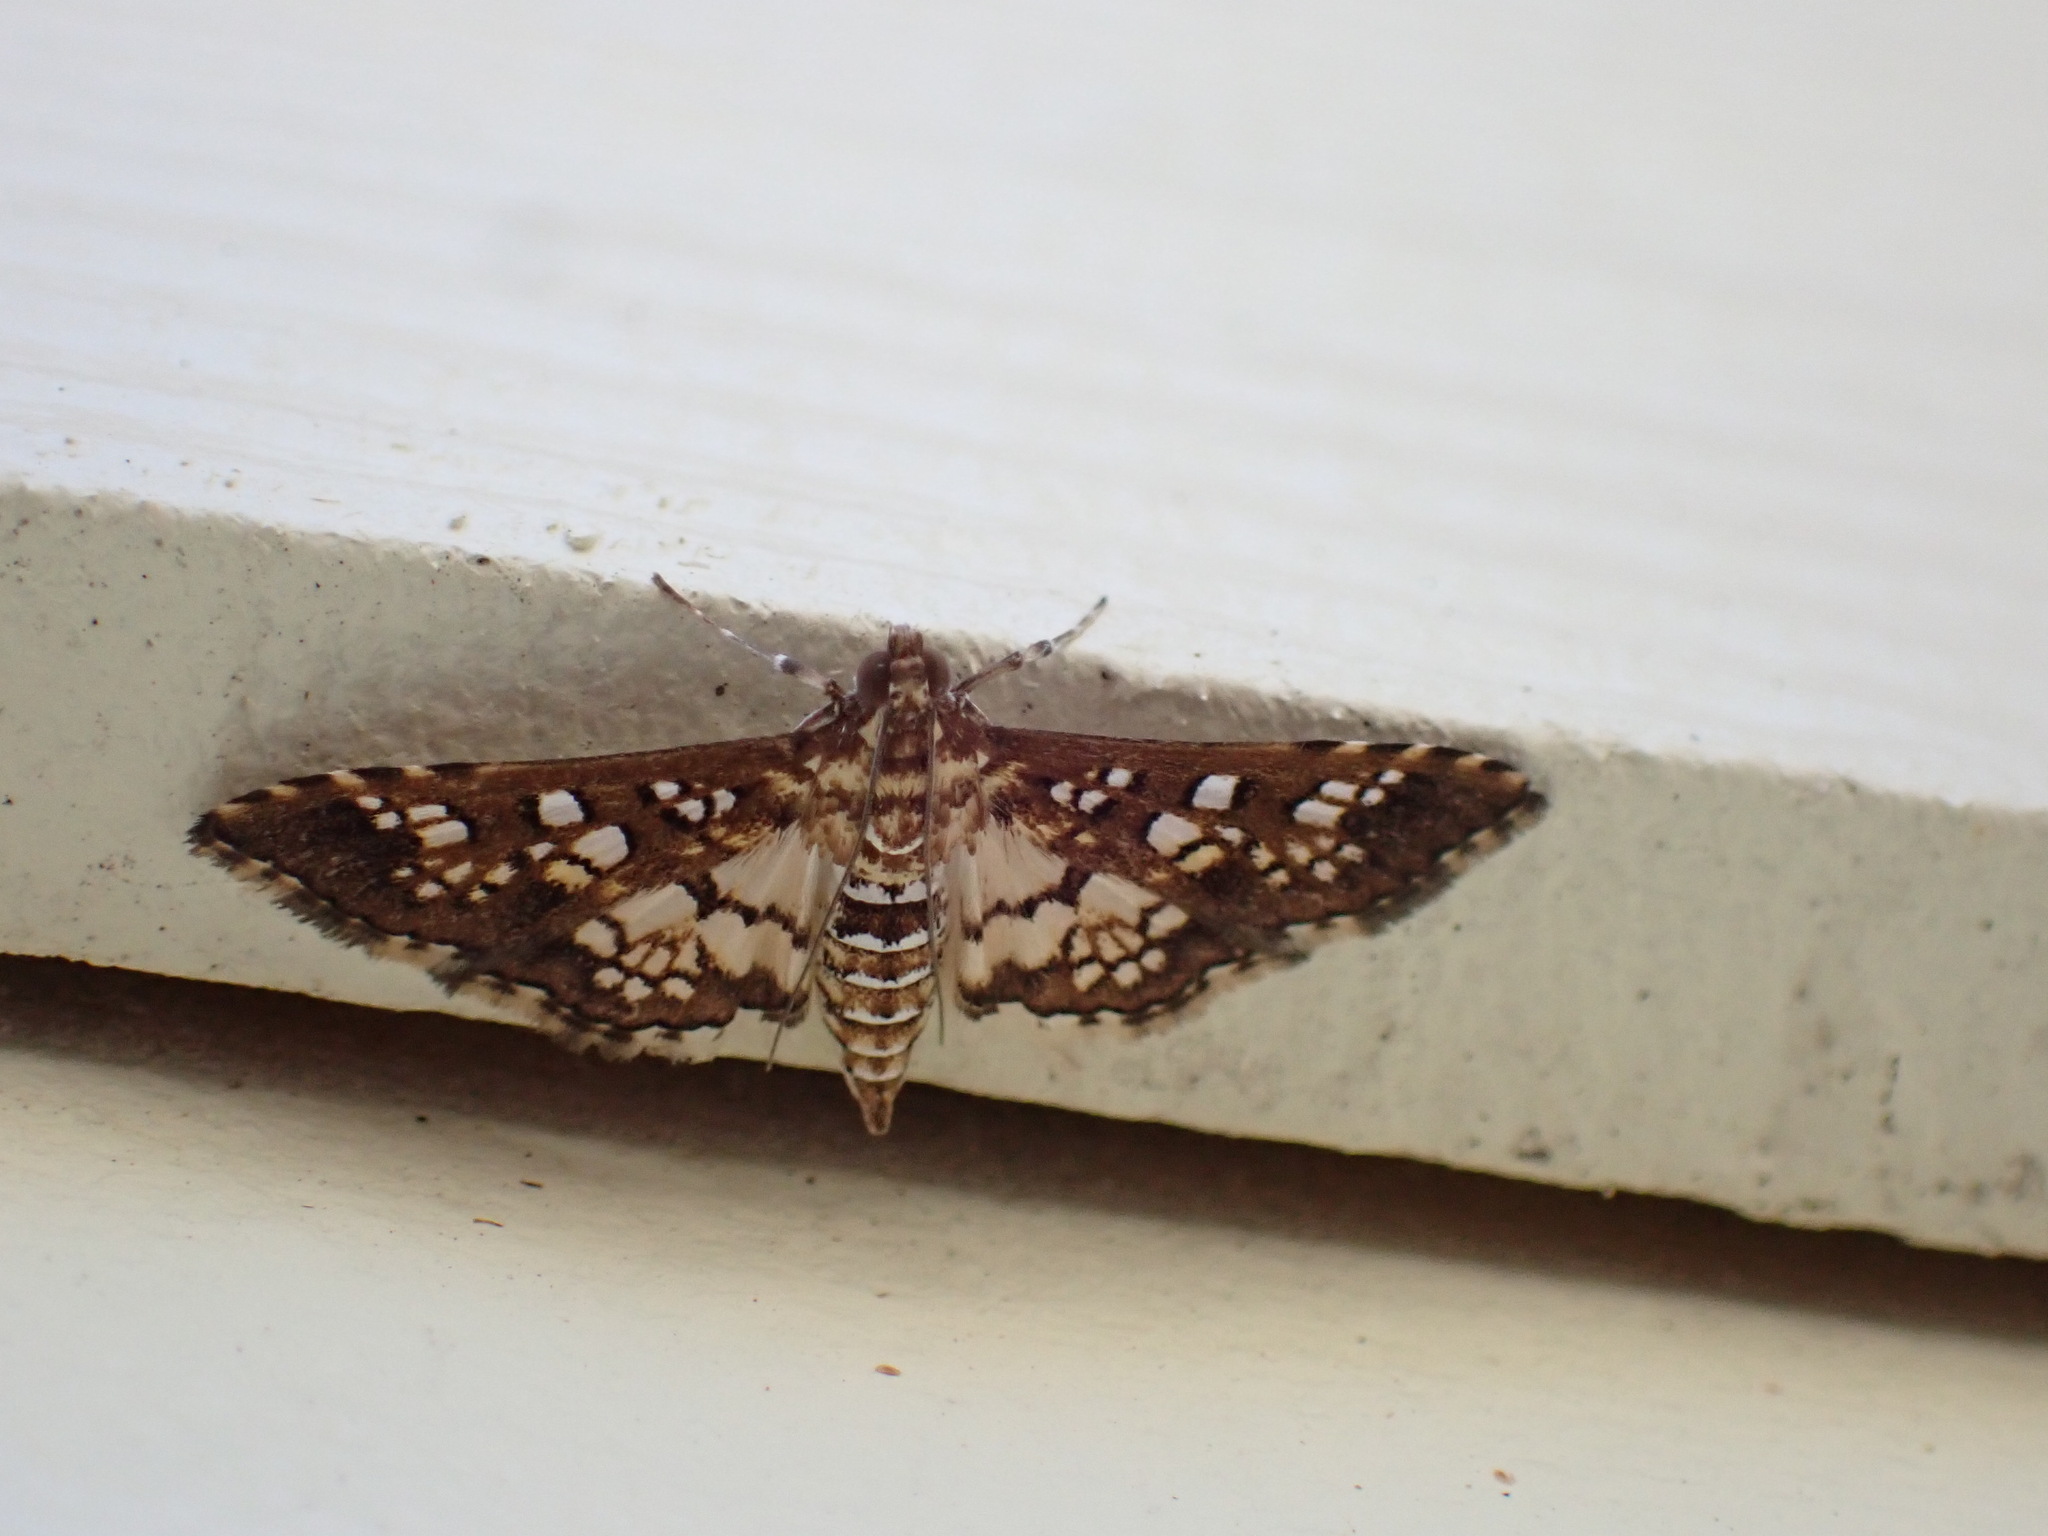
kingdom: Animalia
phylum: Arthropoda
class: Insecta
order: Lepidoptera
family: Crambidae
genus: Samea
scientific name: Samea ecclesialis
